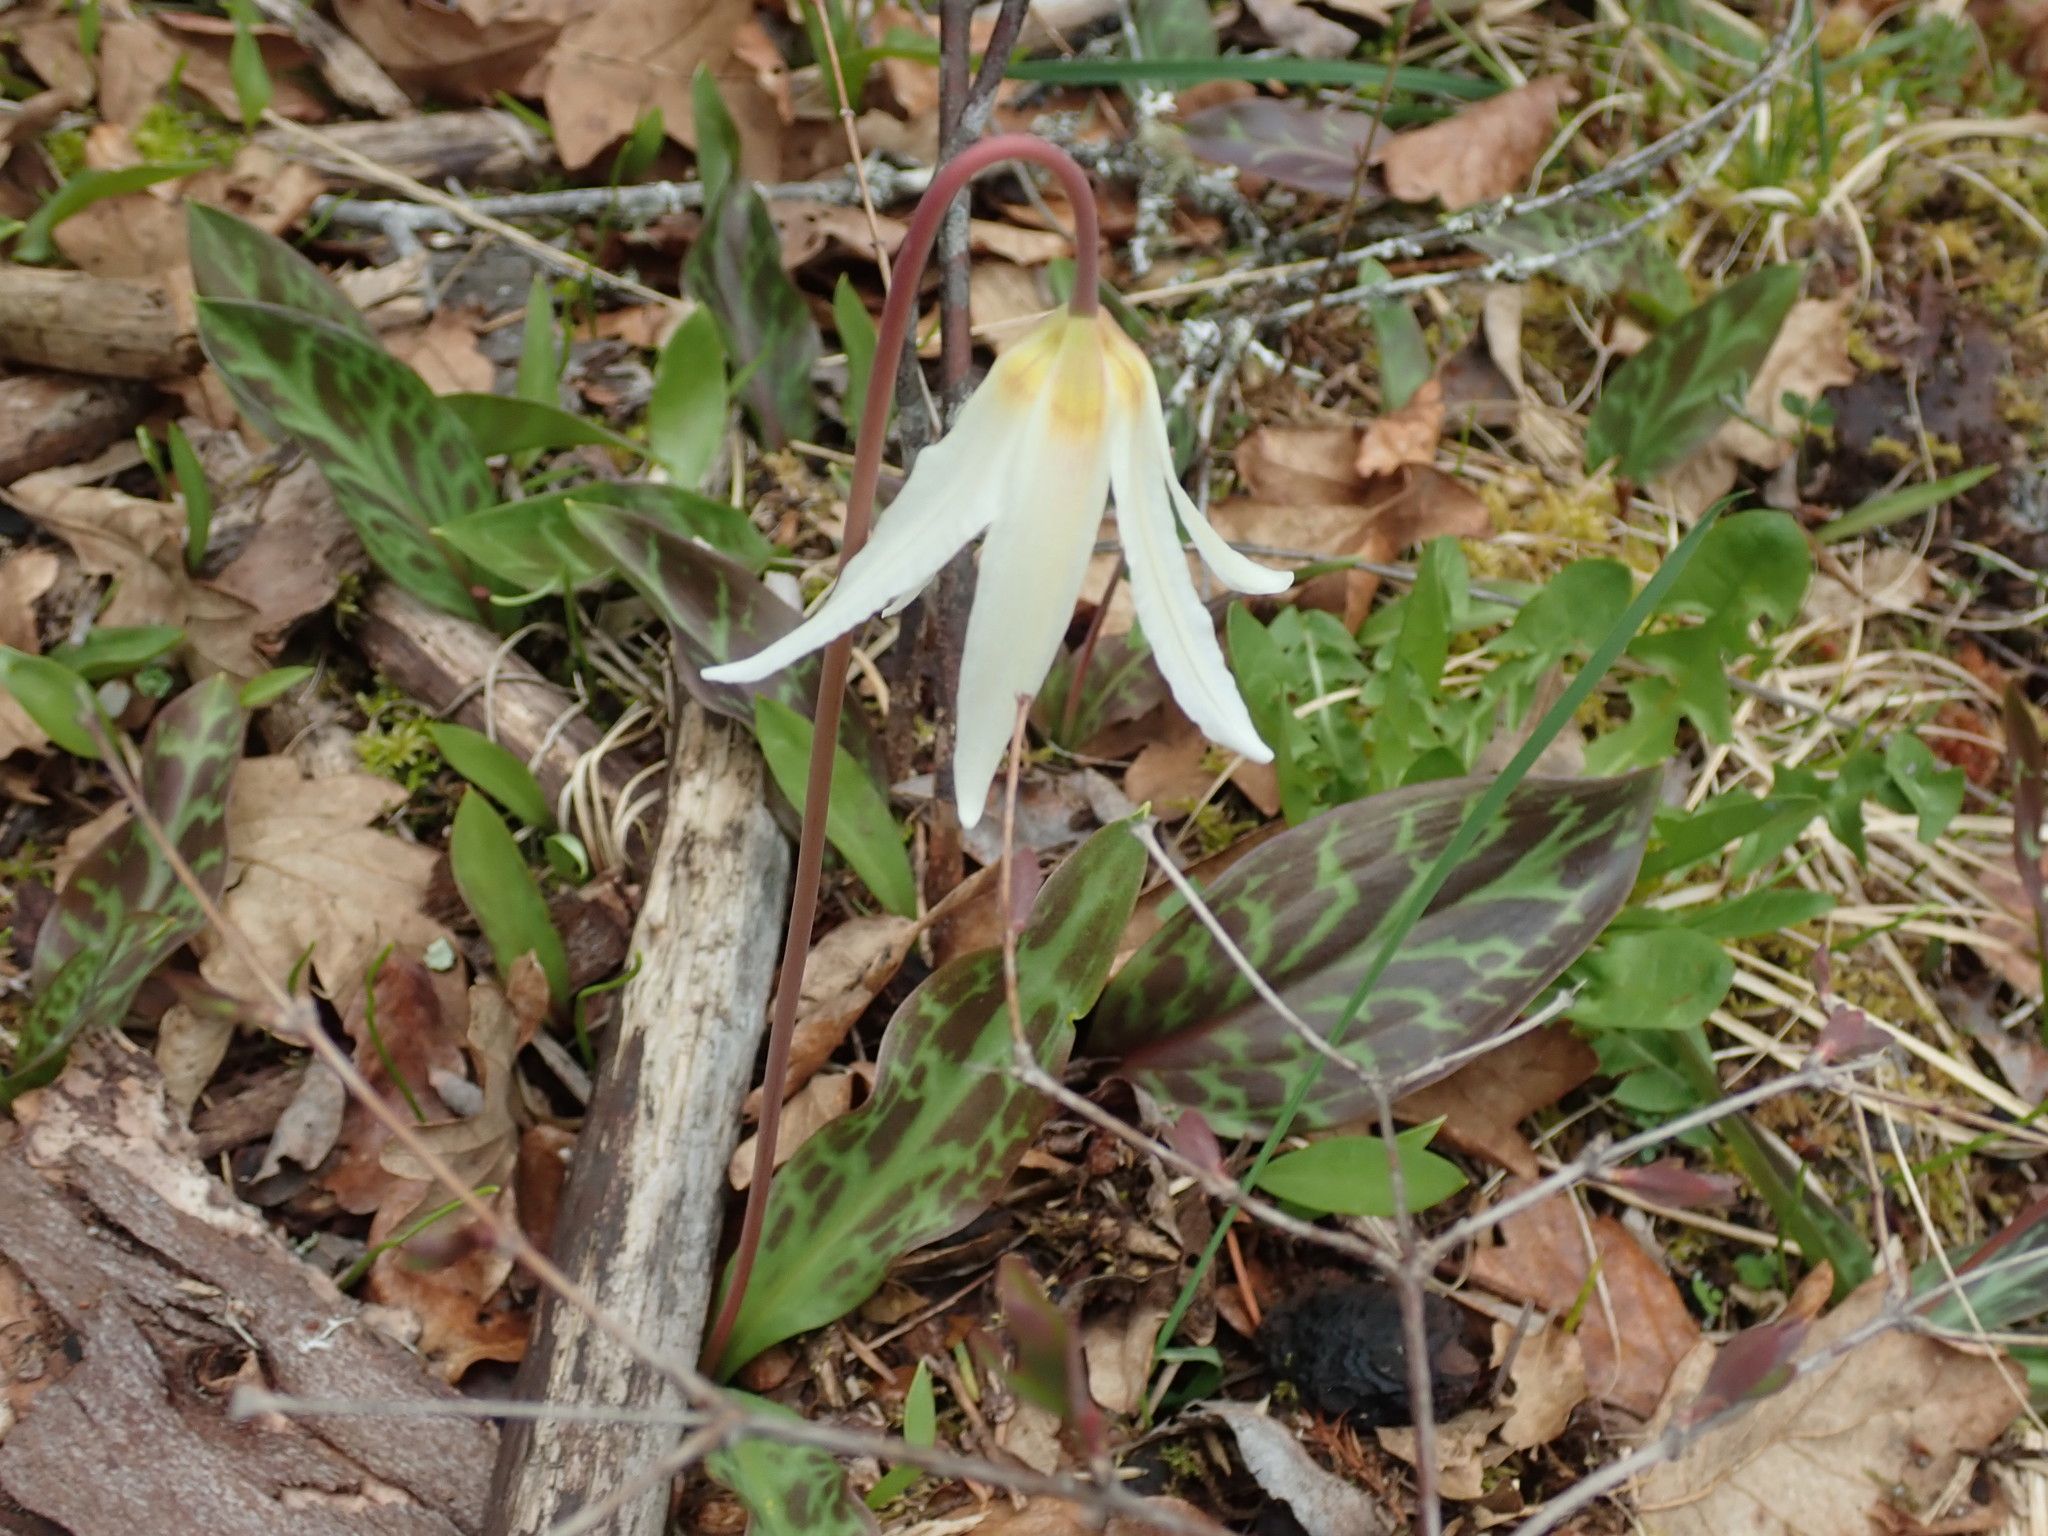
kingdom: Plantae
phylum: Tracheophyta
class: Liliopsida
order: Liliales
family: Liliaceae
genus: Erythronium
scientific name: Erythronium oregonum
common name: Giant adder's-tongue
